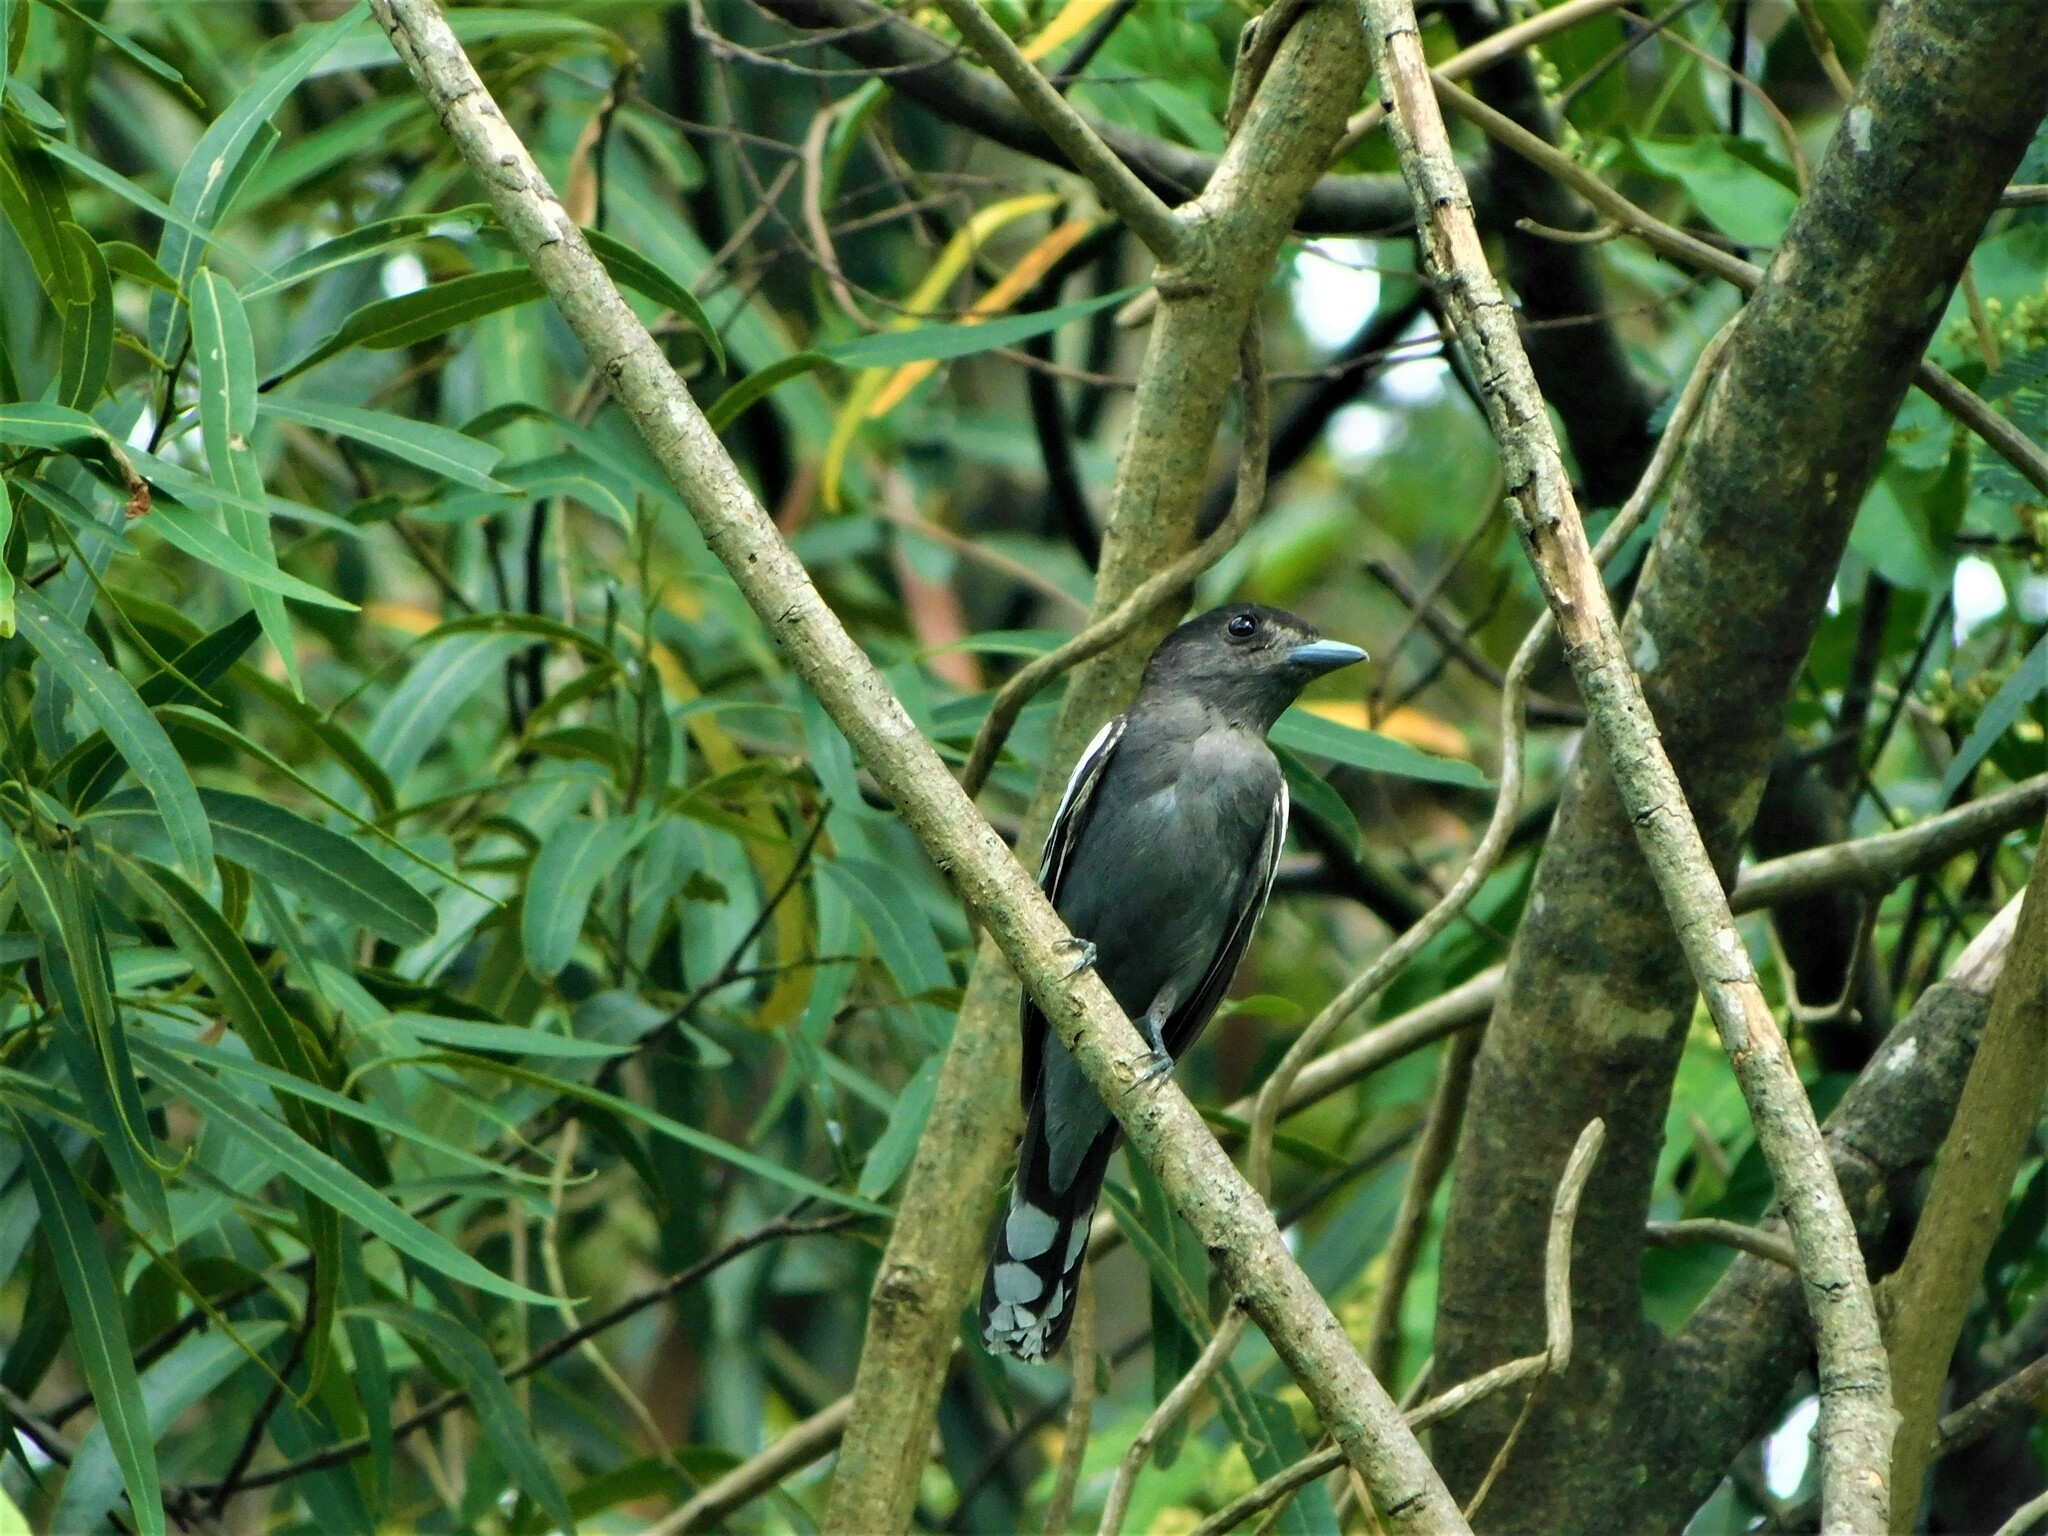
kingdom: Animalia
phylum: Chordata
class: Aves
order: Passeriformes
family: Cotingidae
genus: Pachyramphus
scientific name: Pachyramphus polychopterus
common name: White-winged becard
